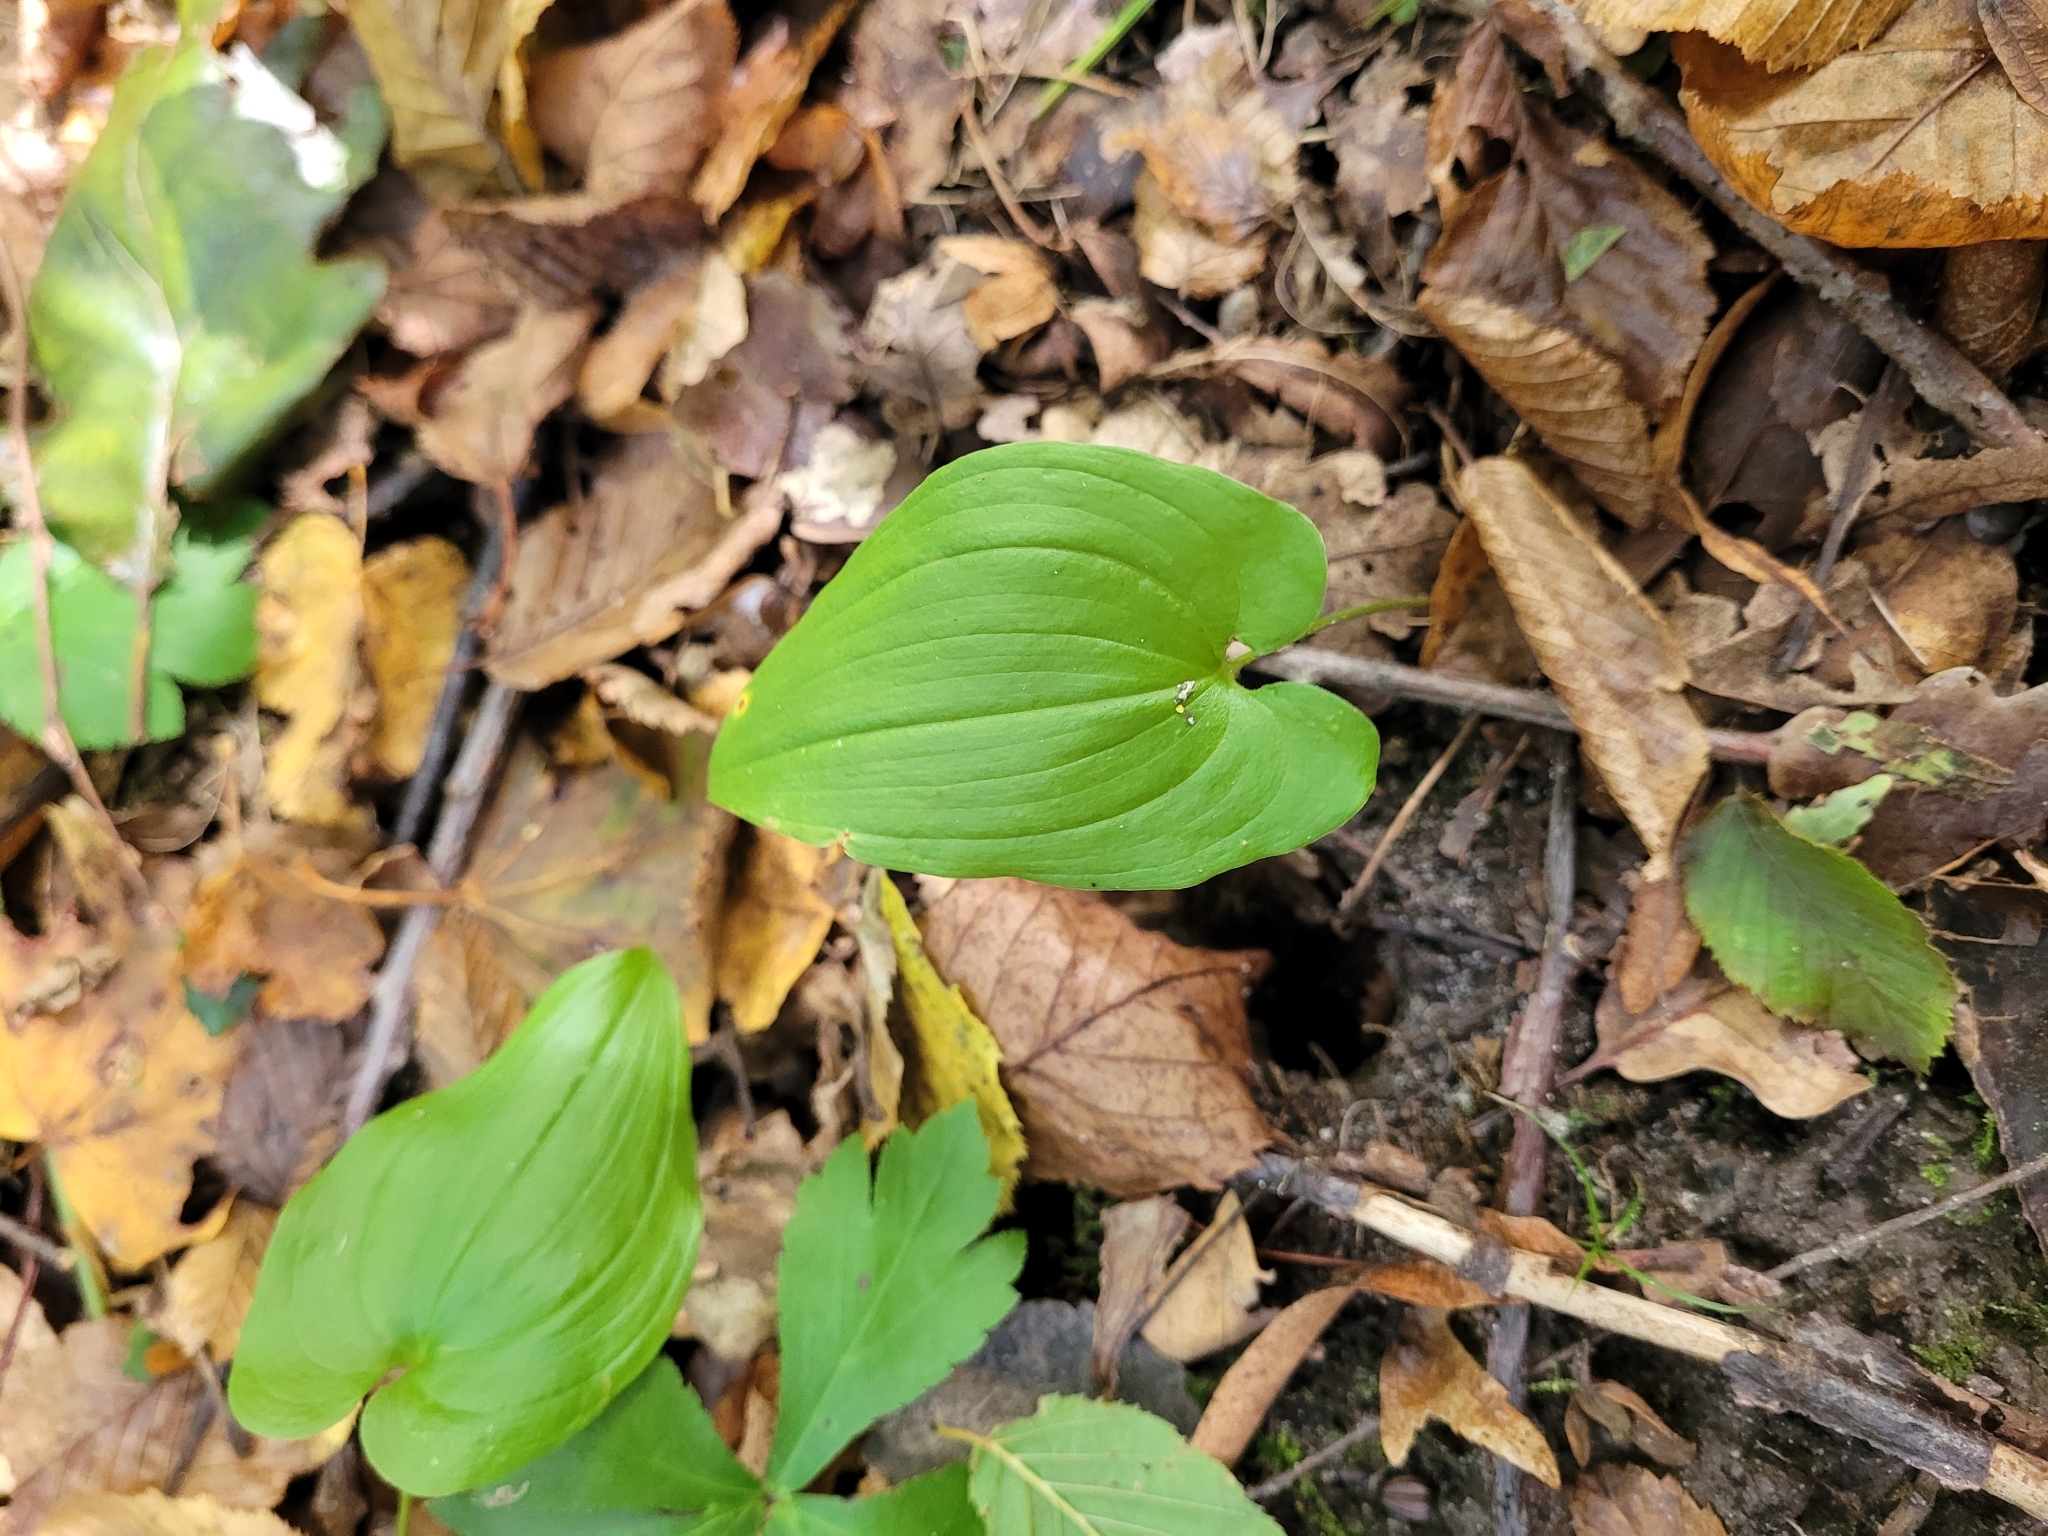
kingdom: Plantae
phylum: Tracheophyta
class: Liliopsida
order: Asparagales
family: Asparagaceae
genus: Maianthemum
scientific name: Maianthemum bifolium
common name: May lily
